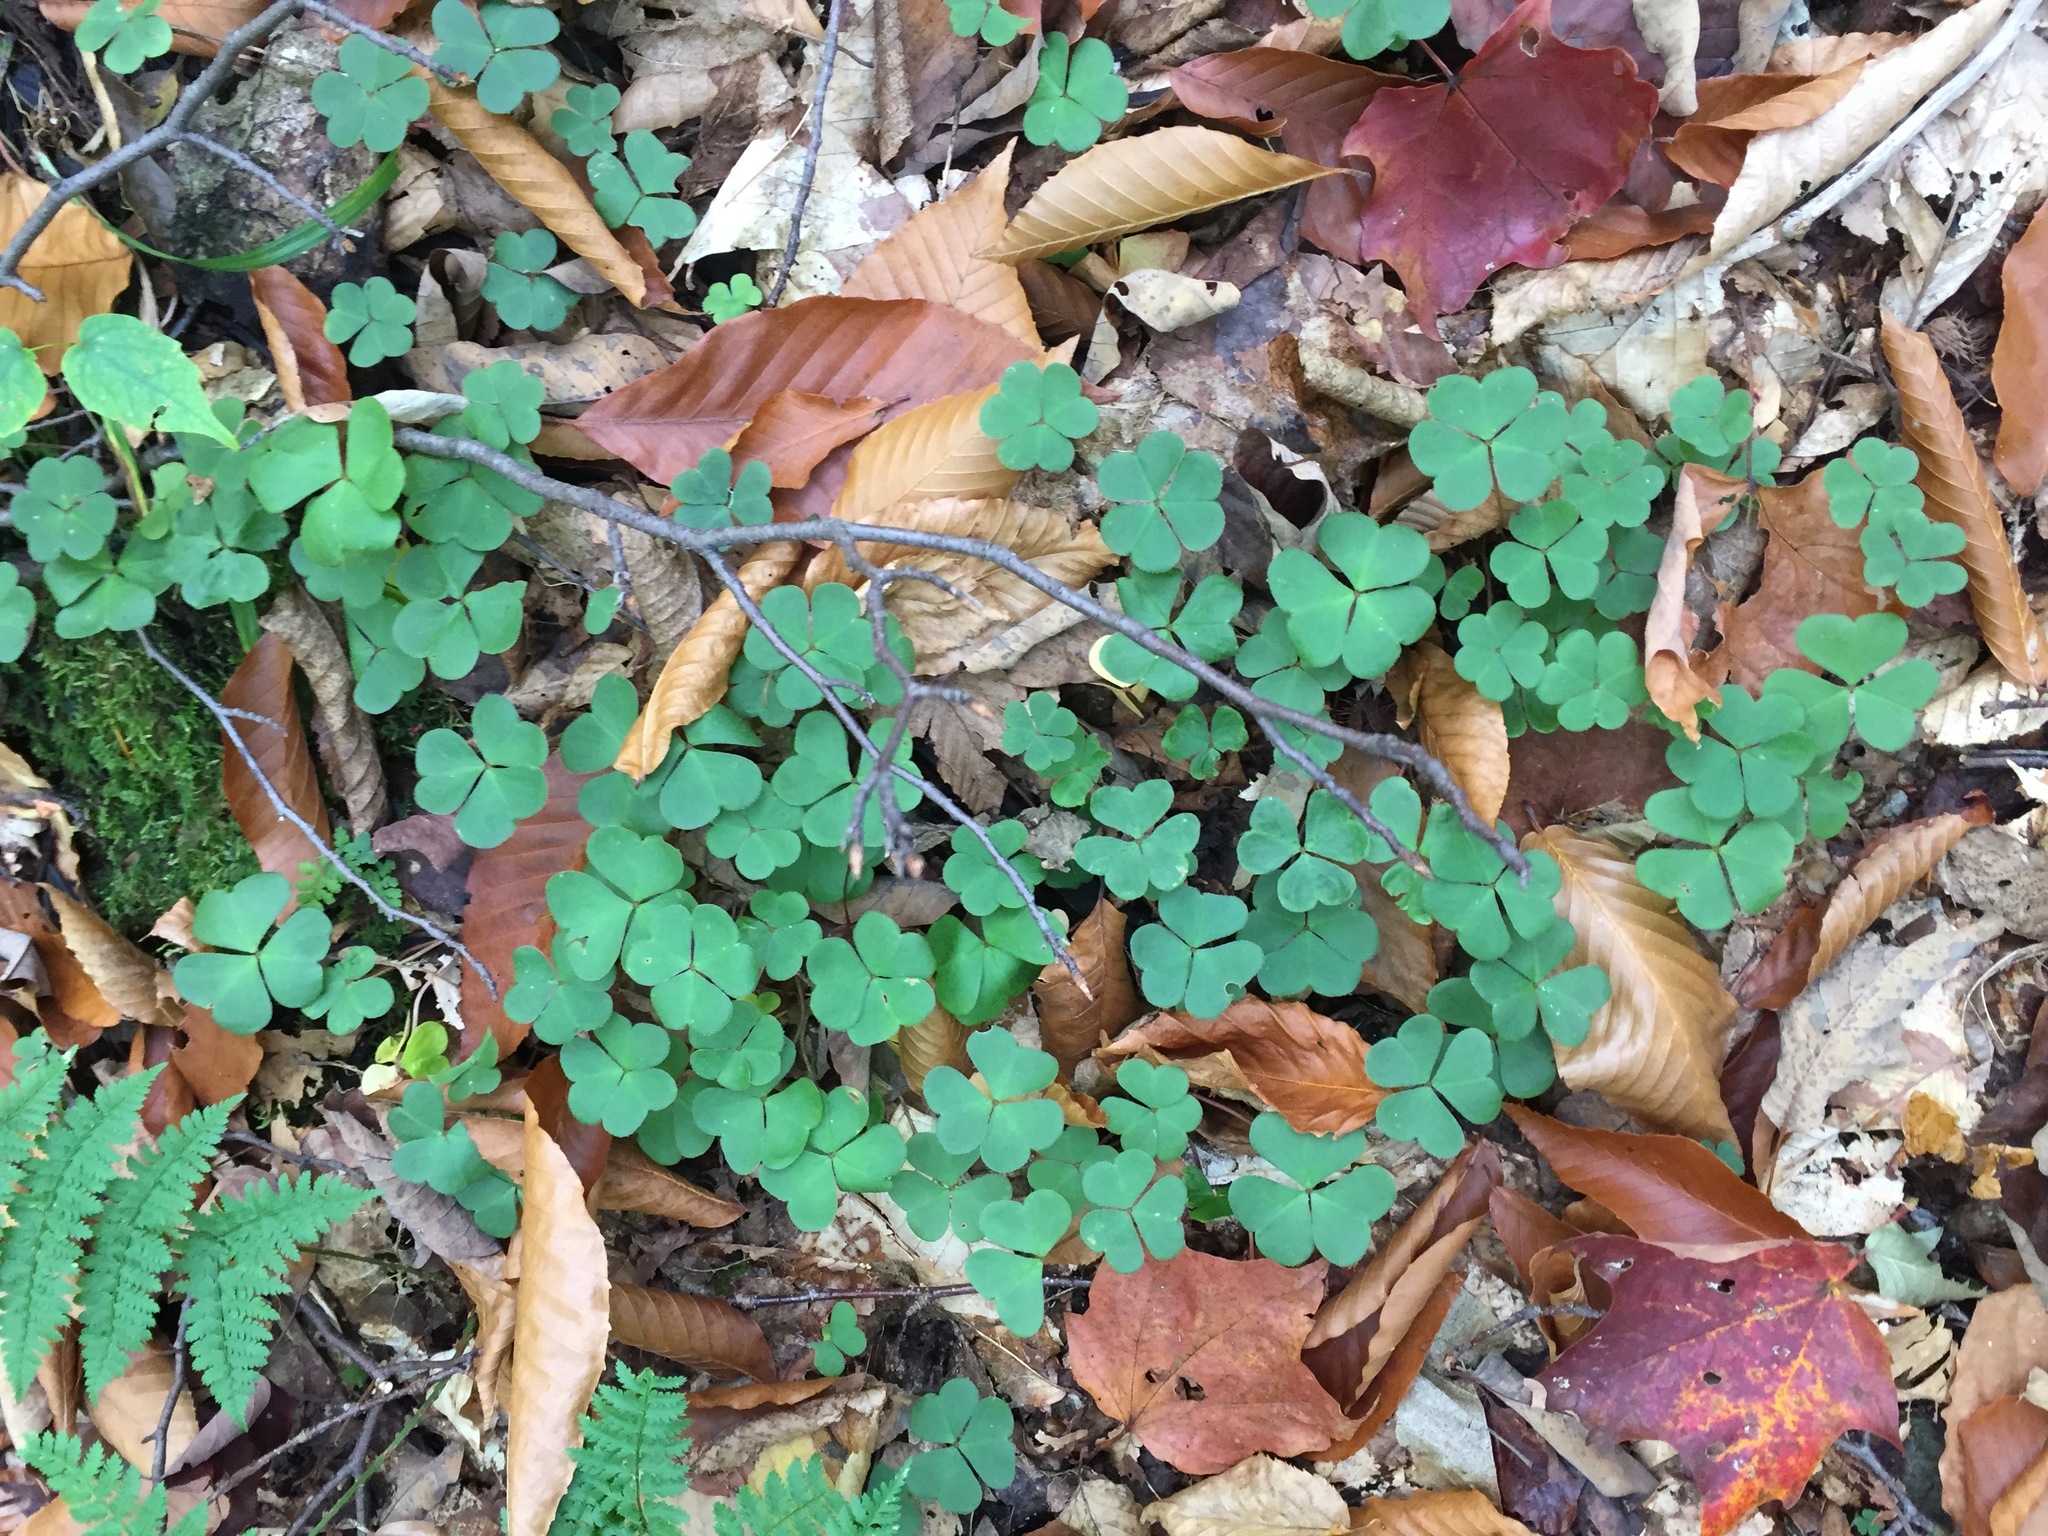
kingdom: Plantae
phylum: Tracheophyta
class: Magnoliopsida
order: Oxalidales
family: Oxalidaceae
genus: Oxalis
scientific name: Oxalis montana
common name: American wood-sorrel
